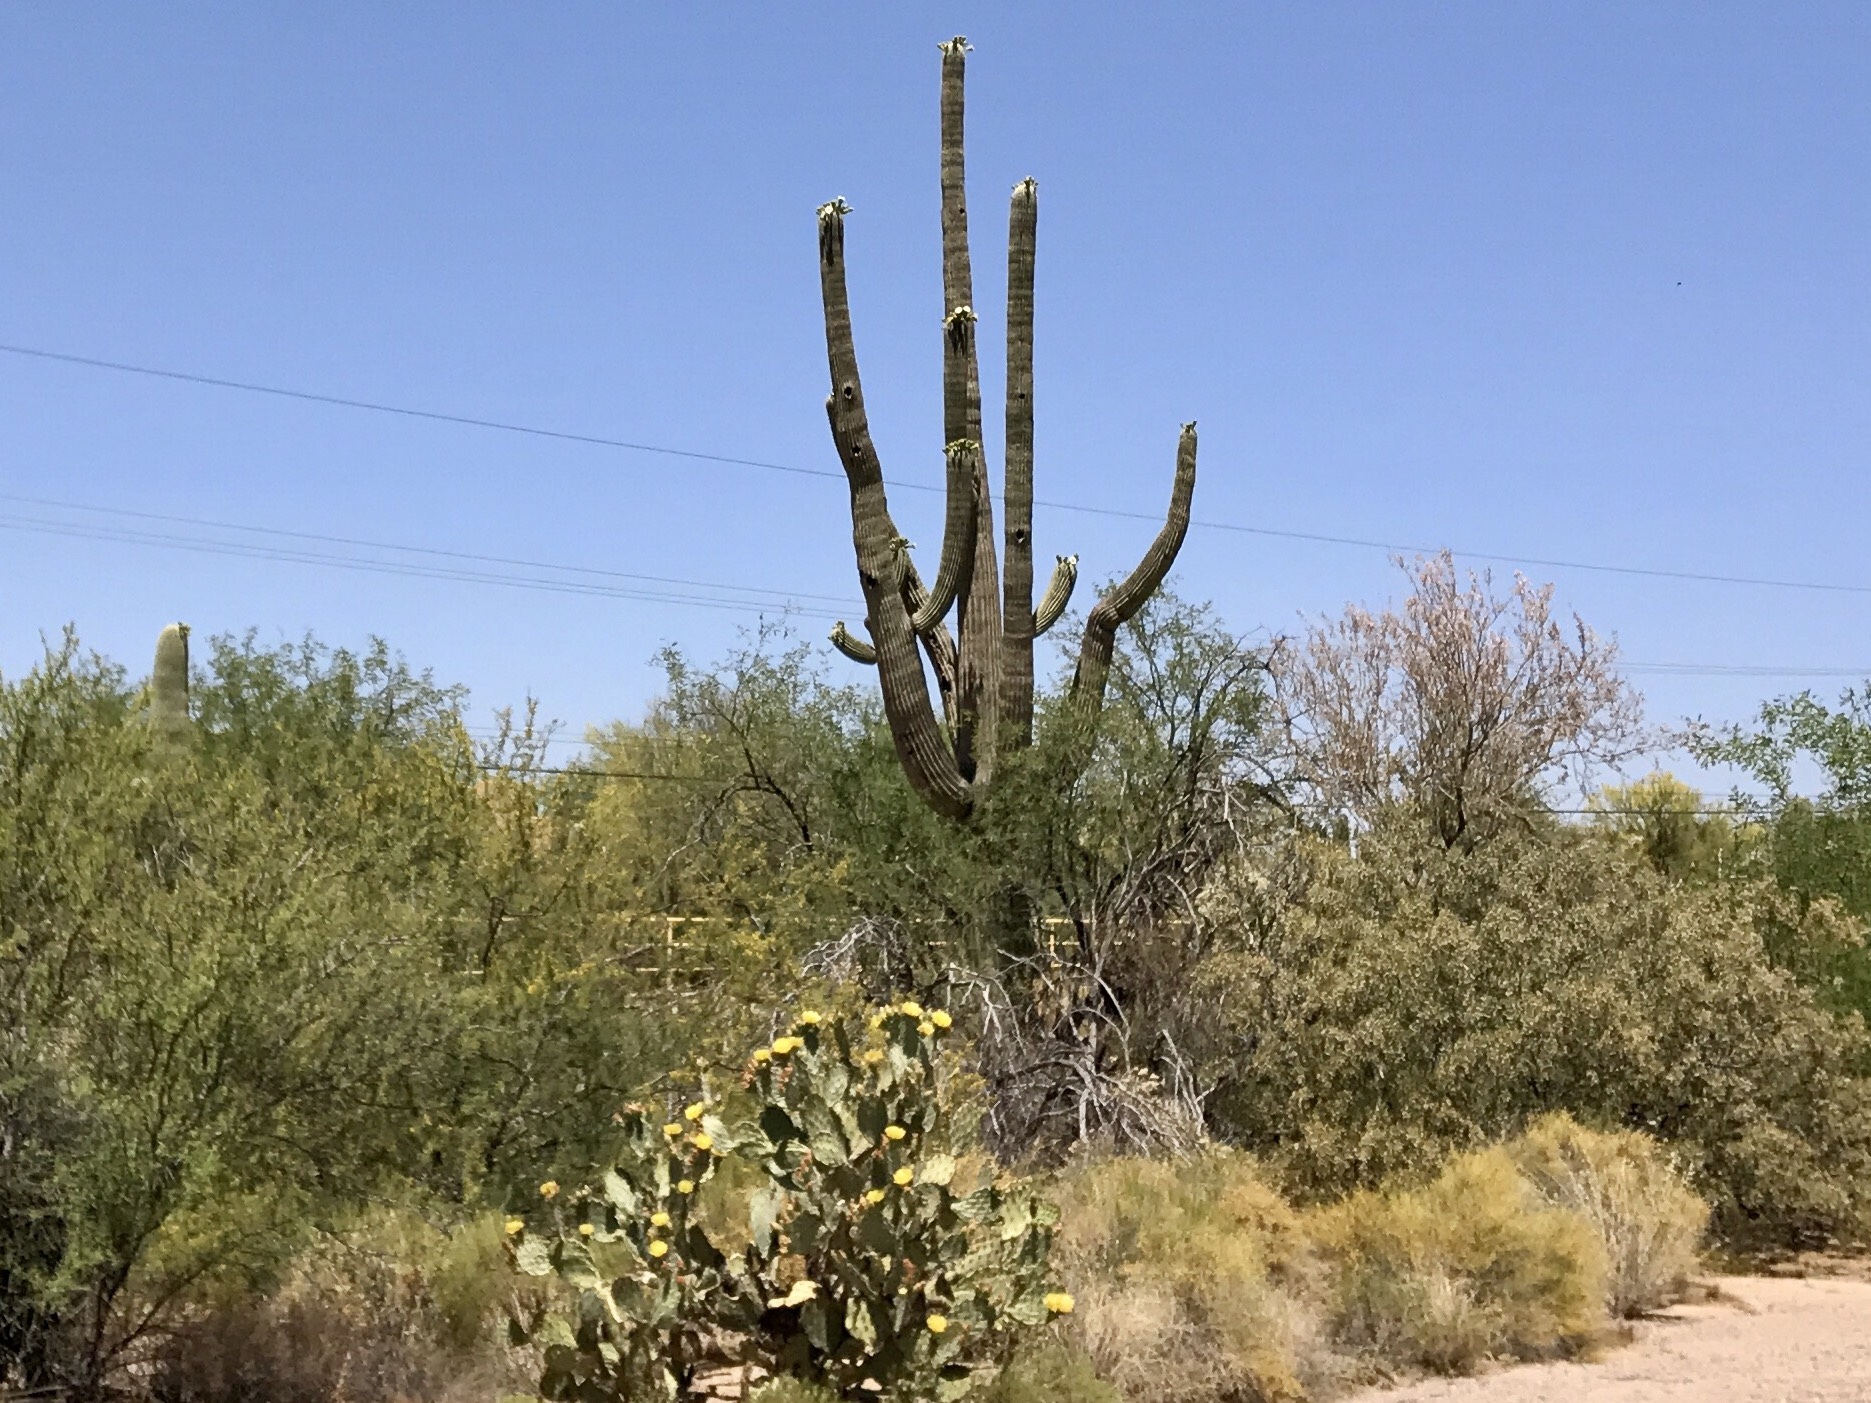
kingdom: Plantae
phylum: Tracheophyta
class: Magnoliopsida
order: Caryophyllales
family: Cactaceae
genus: Carnegiea
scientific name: Carnegiea gigantea
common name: Saguaro
